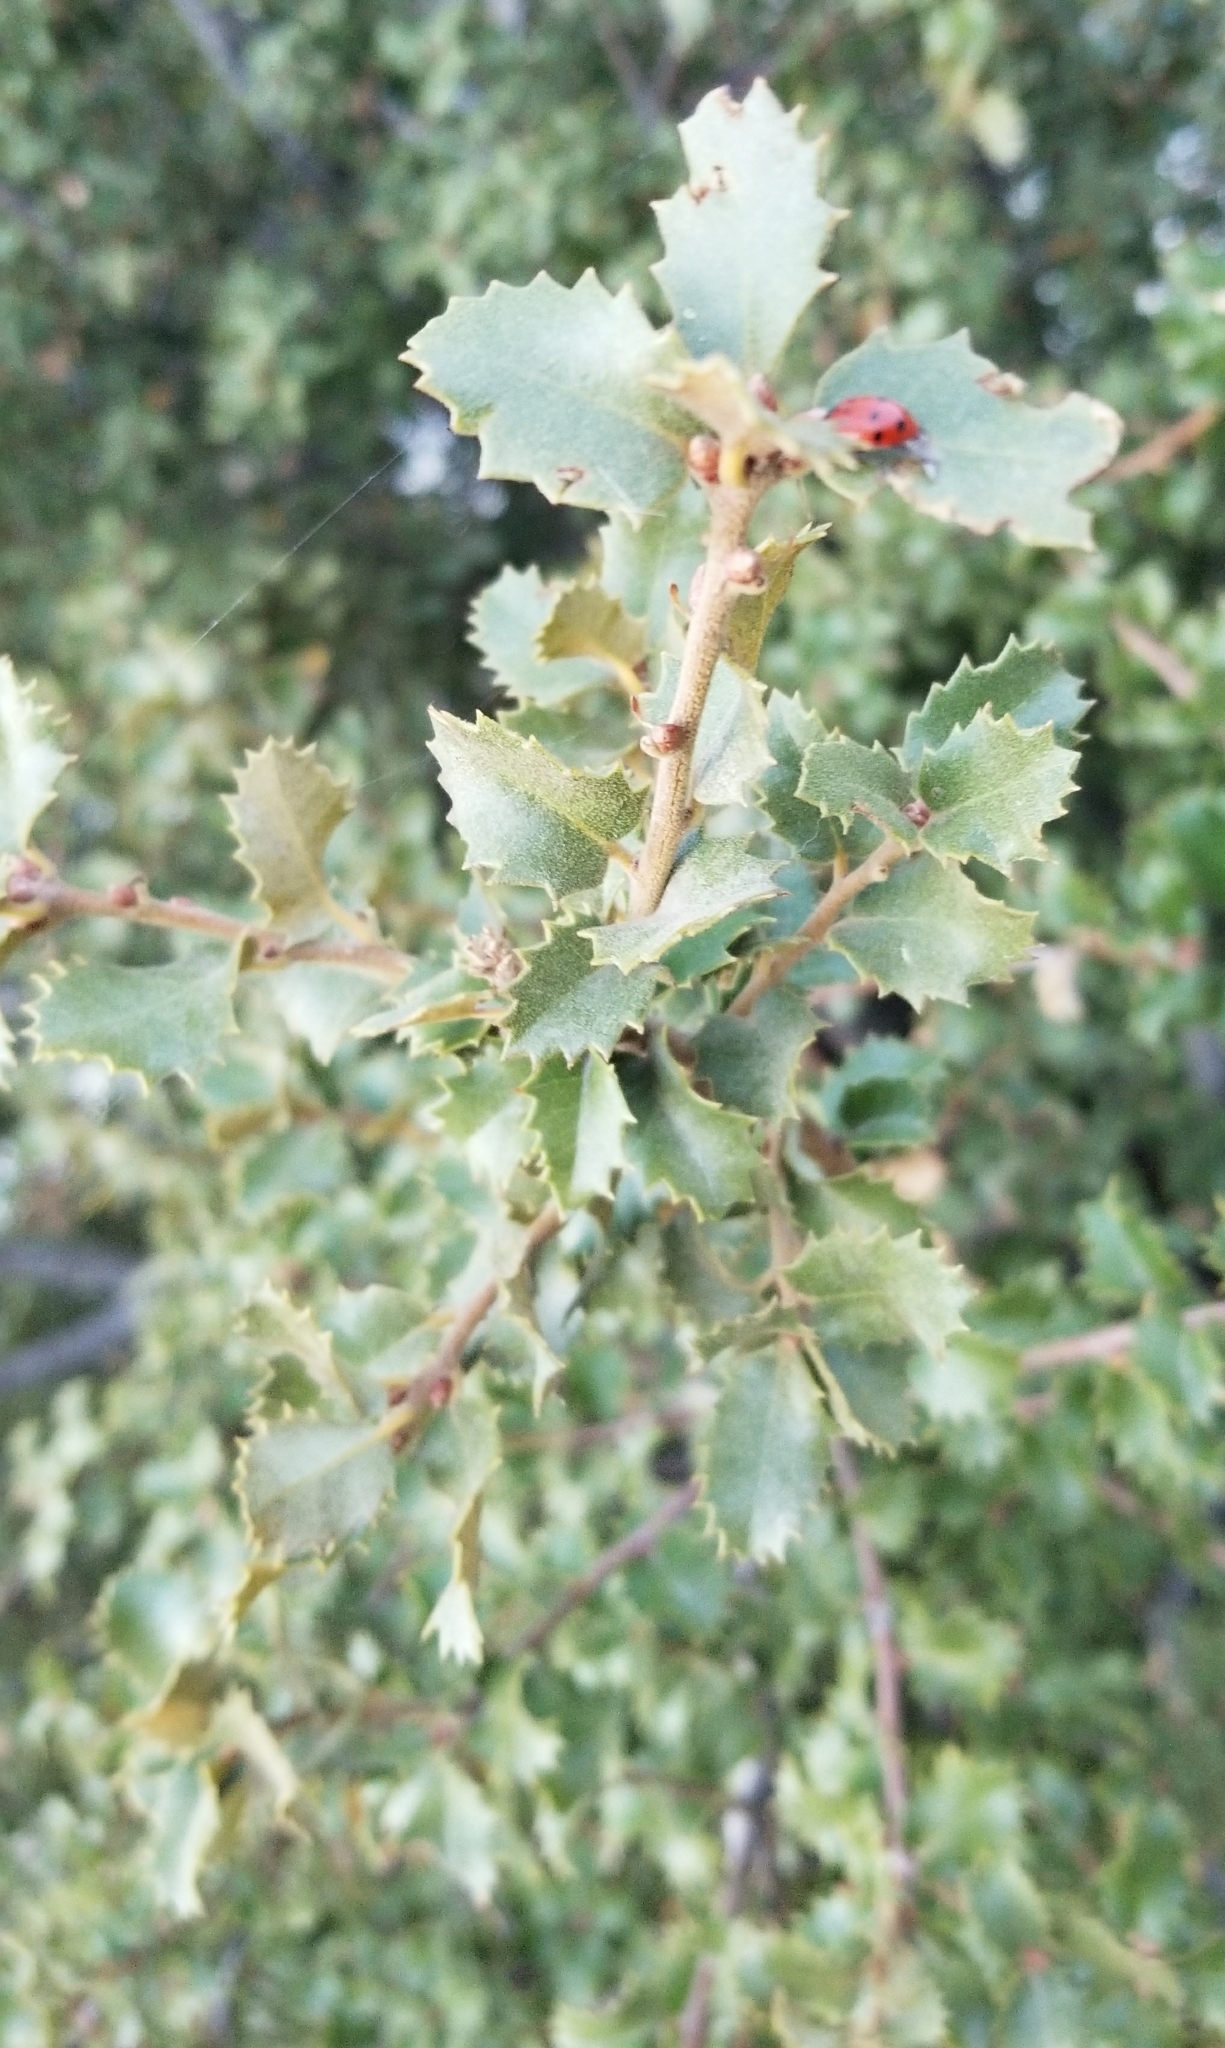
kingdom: Plantae
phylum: Tracheophyta
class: Magnoliopsida
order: Fagales
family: Fagaceae
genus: Quercus
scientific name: Quercus berberidifolia
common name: California scrub oak
